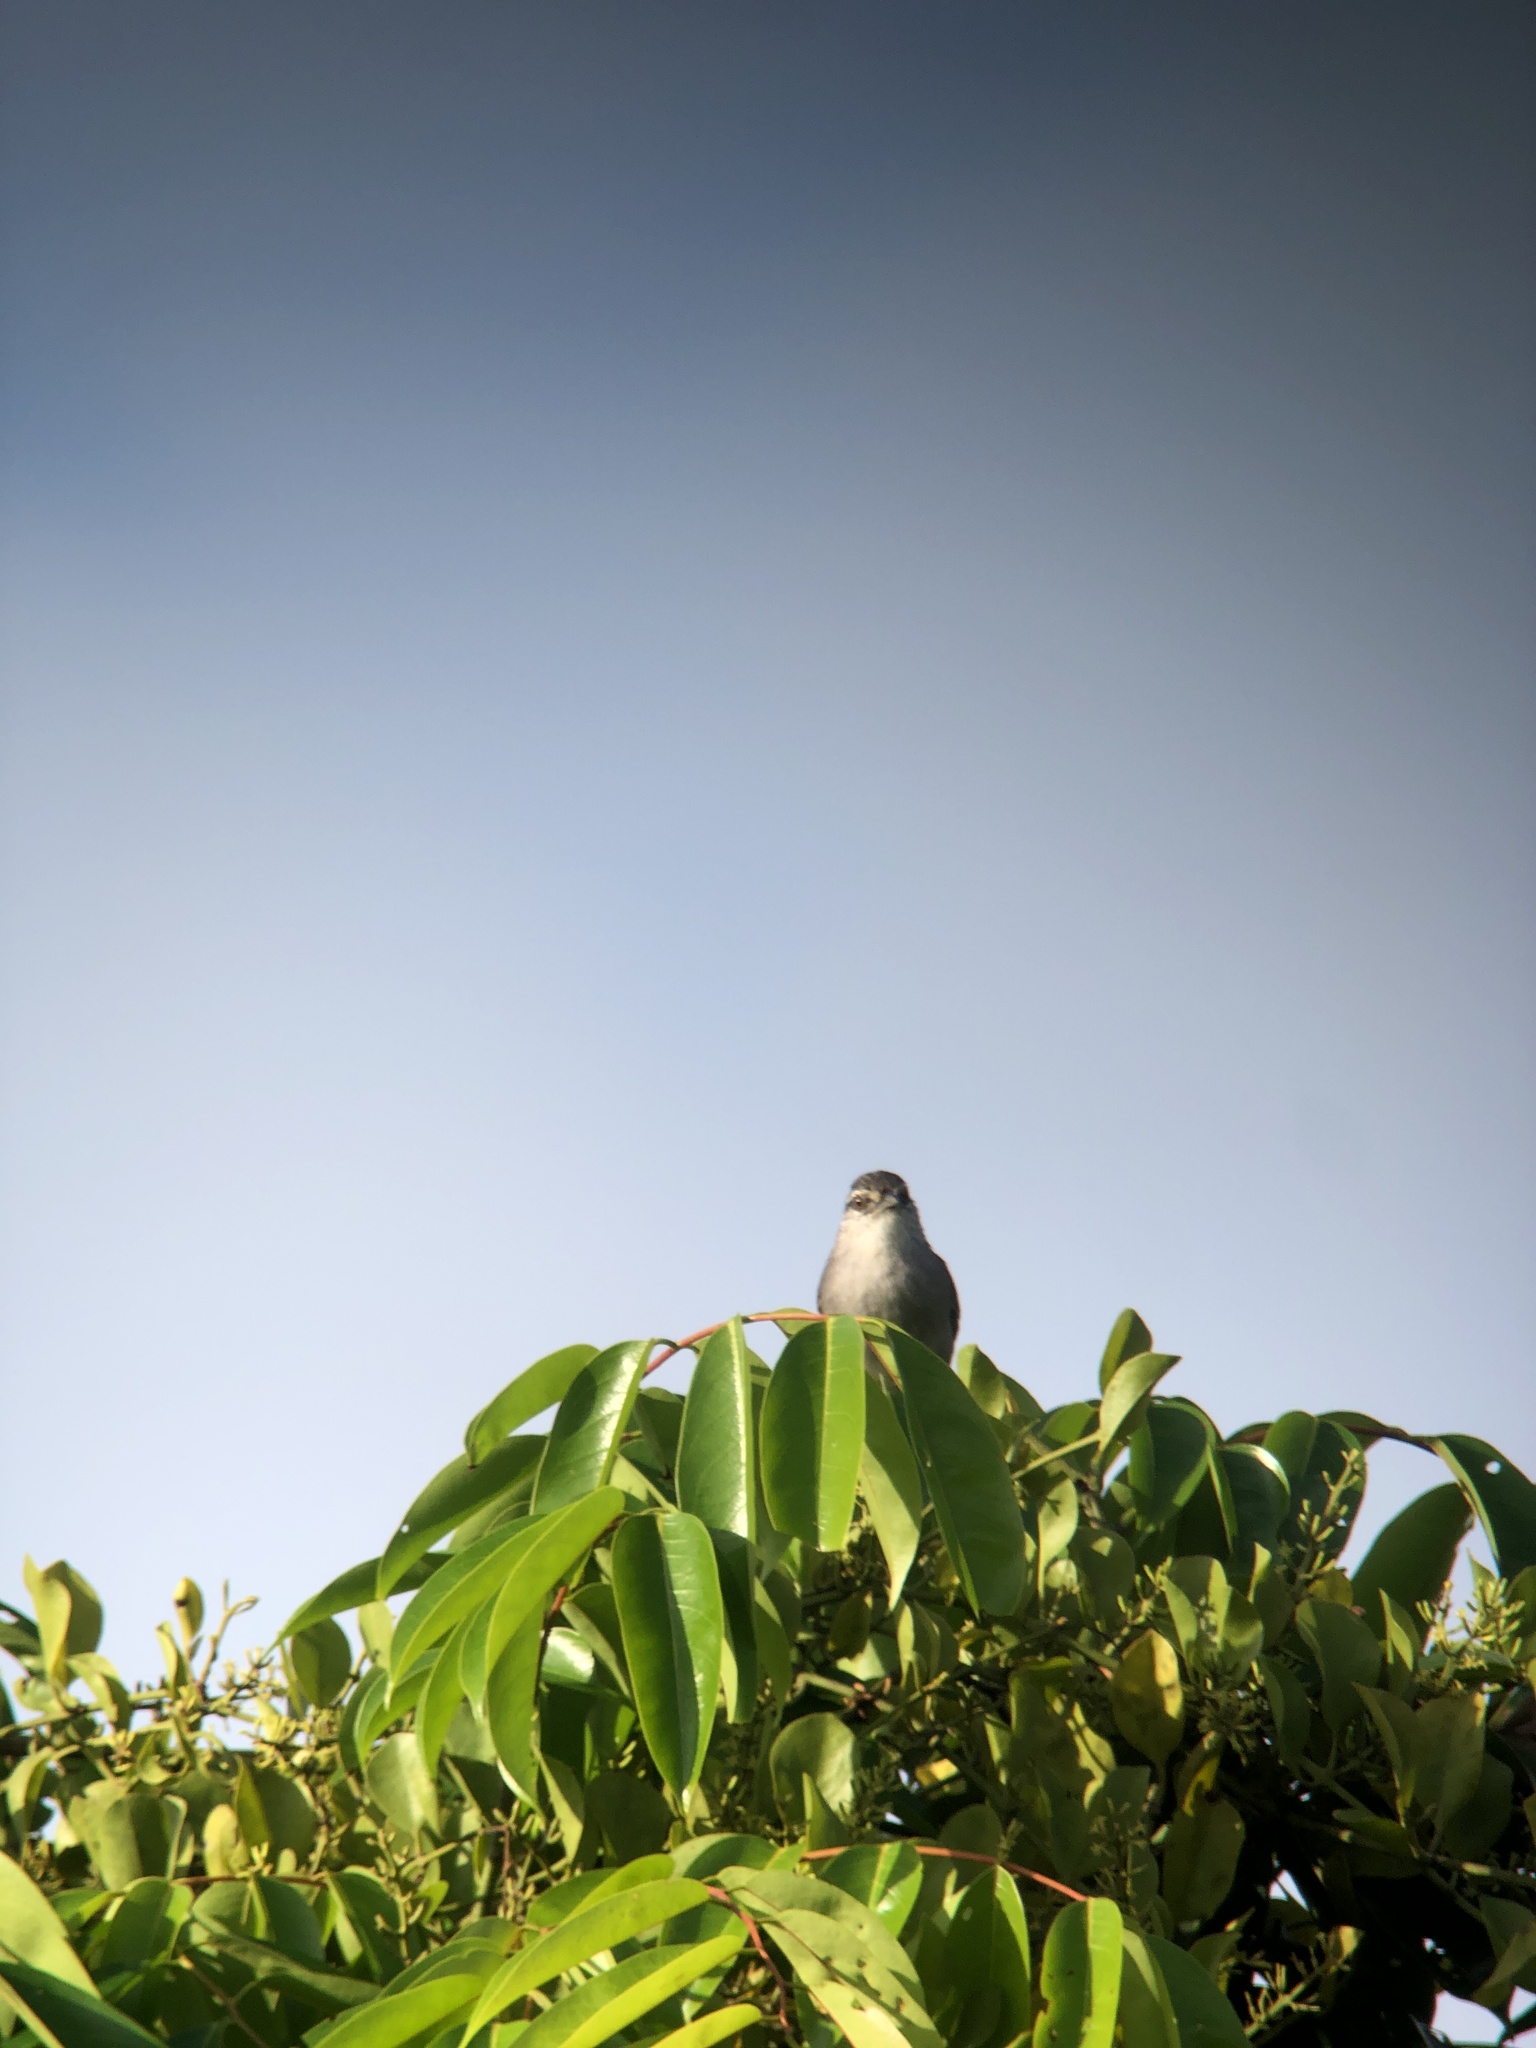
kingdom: Animalia
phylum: Chordata
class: Aves
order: Passeriformes
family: Troglodytidae
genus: Cantorchilus
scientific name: Cantorchilus modestus
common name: Cabanis's wren
